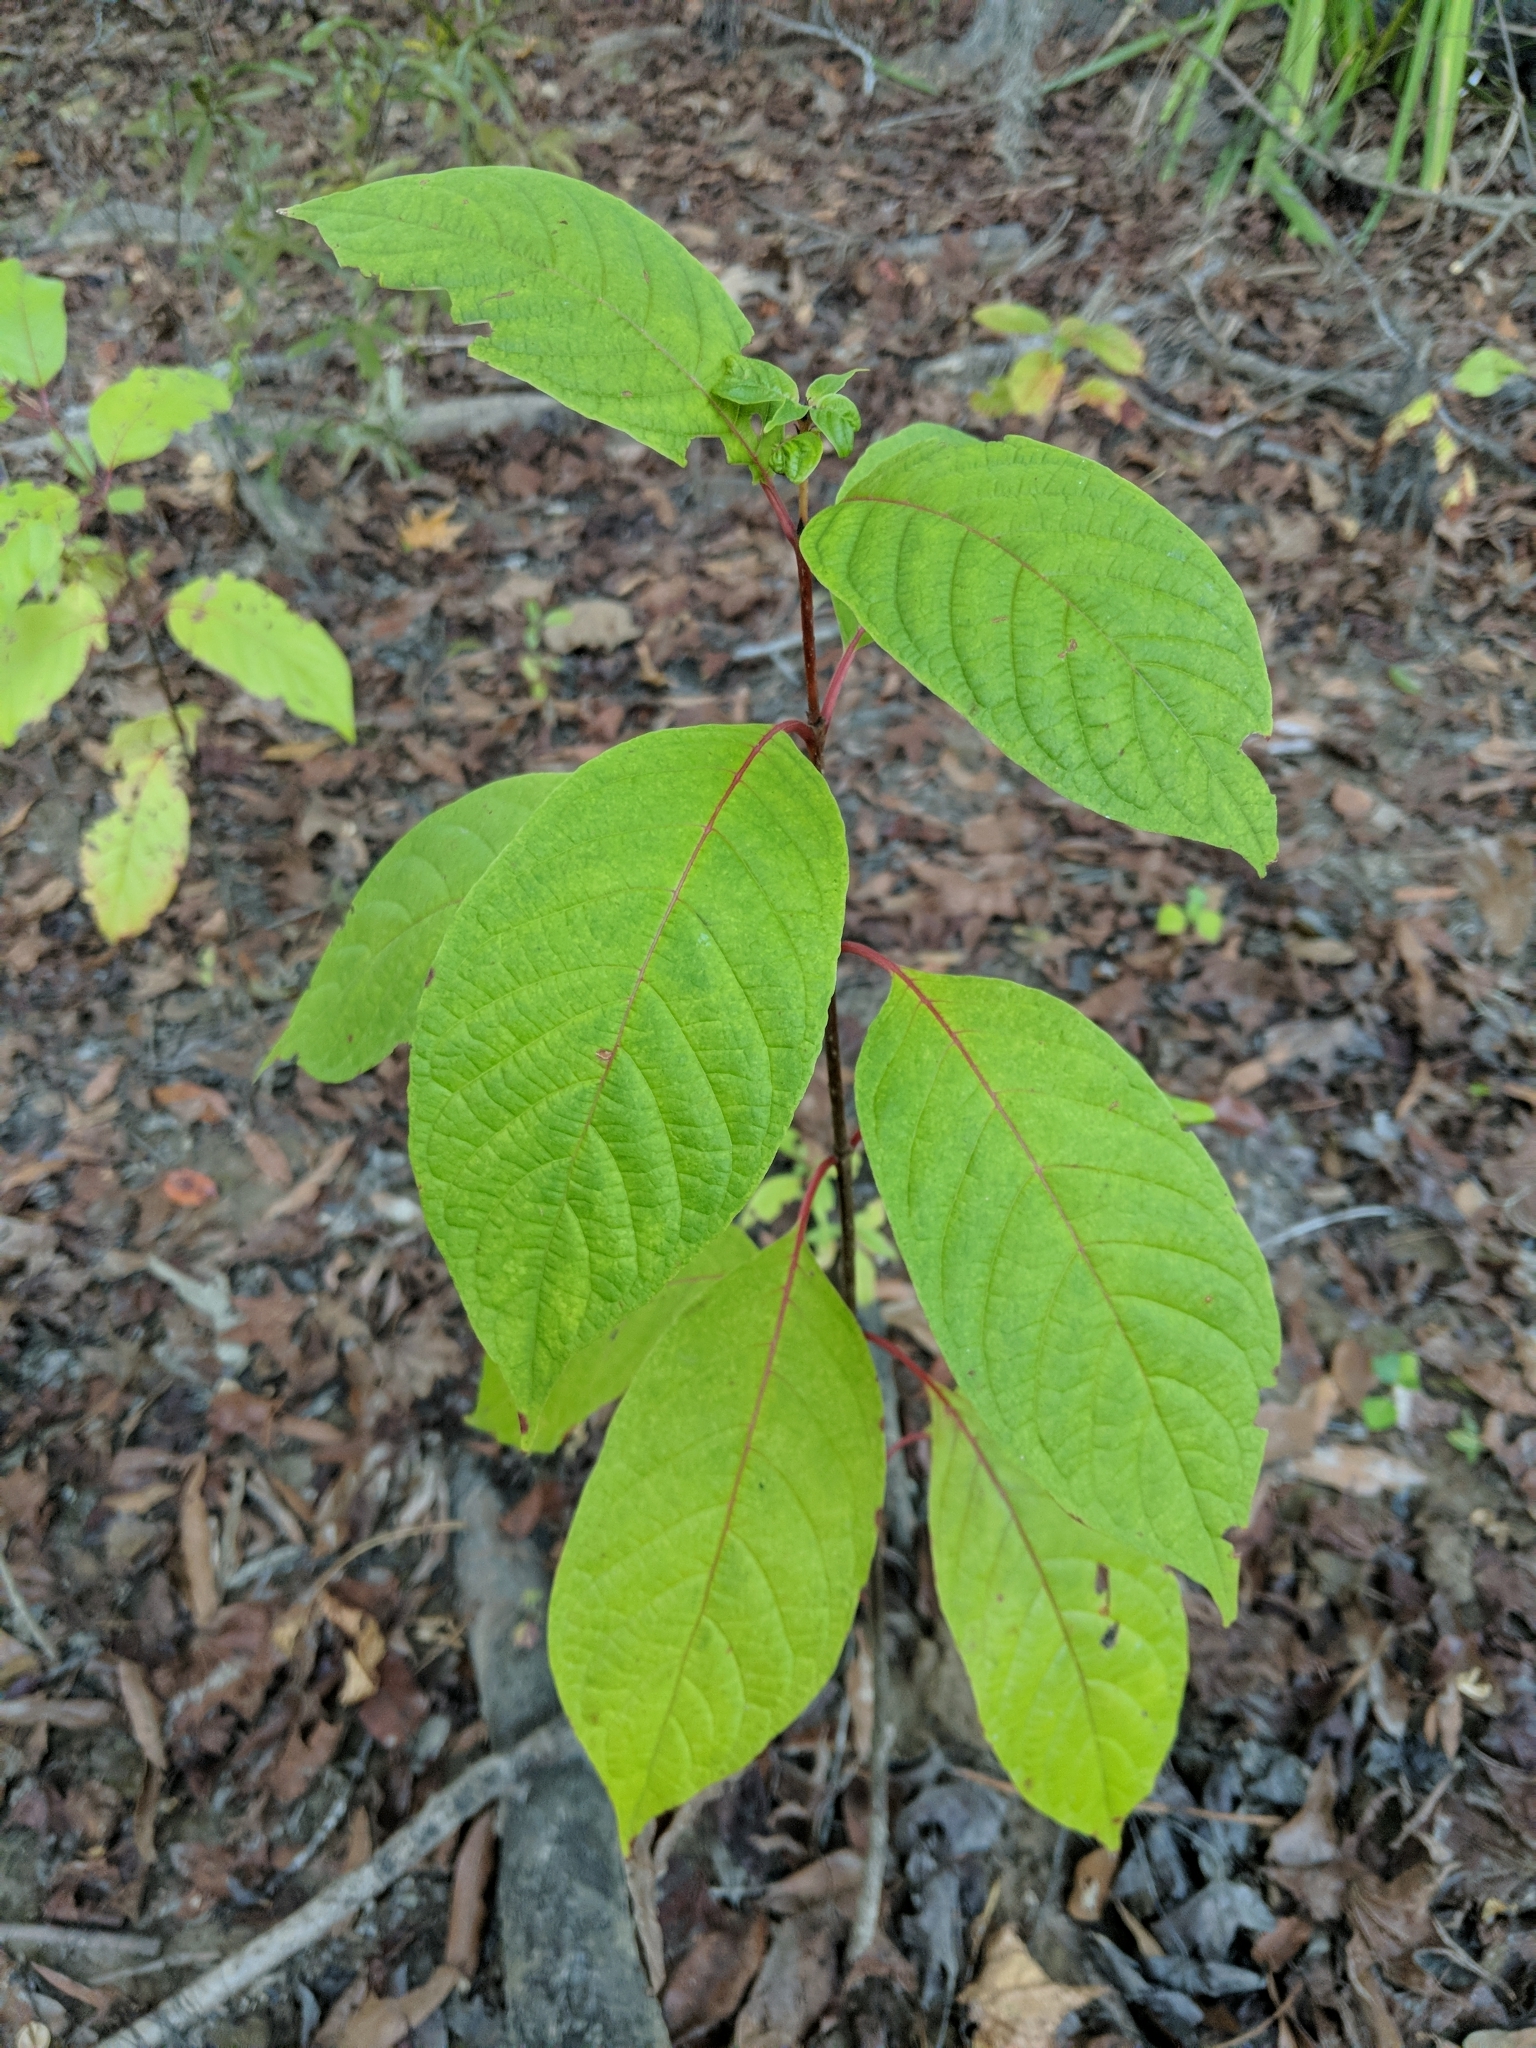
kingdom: Plantae
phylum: Tracheophyta
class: Magnoliopsida
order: Gentianales
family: Rubiaceae
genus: Cephalanthus
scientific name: Cephalanthus occidentalis
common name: Button-willow
